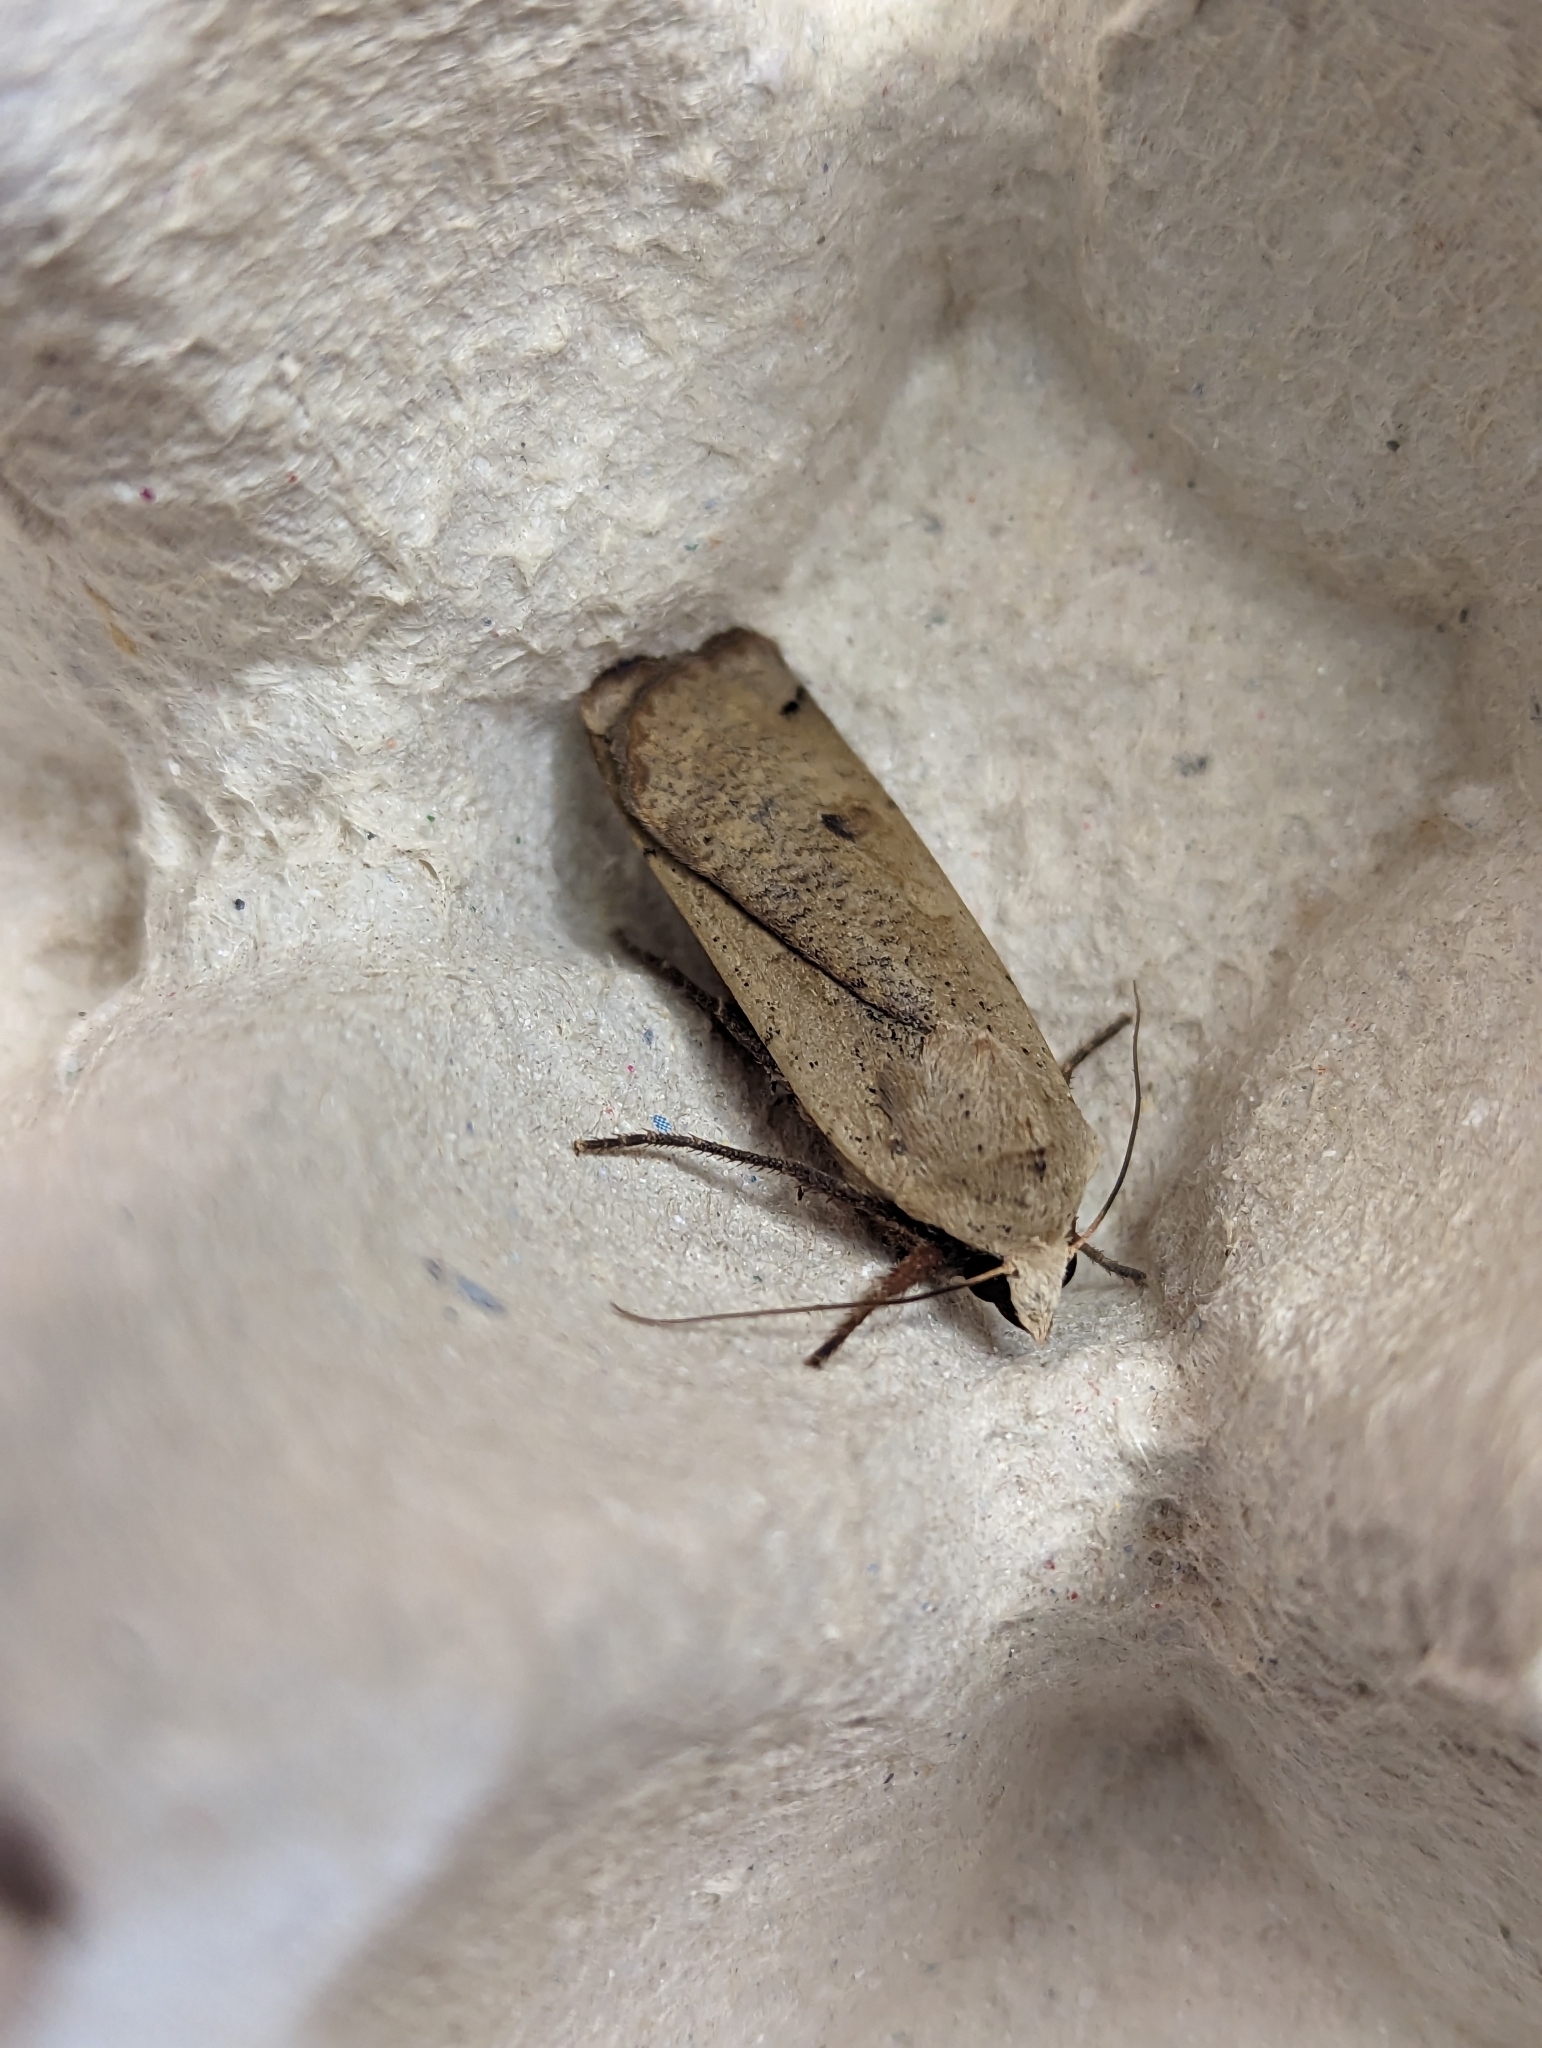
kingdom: Animalia
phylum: Arthropoda
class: Insecta
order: Lepidoptera
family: Noctuidae
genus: Noctua
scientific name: Noctua pronuba
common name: Large yellow underwing
